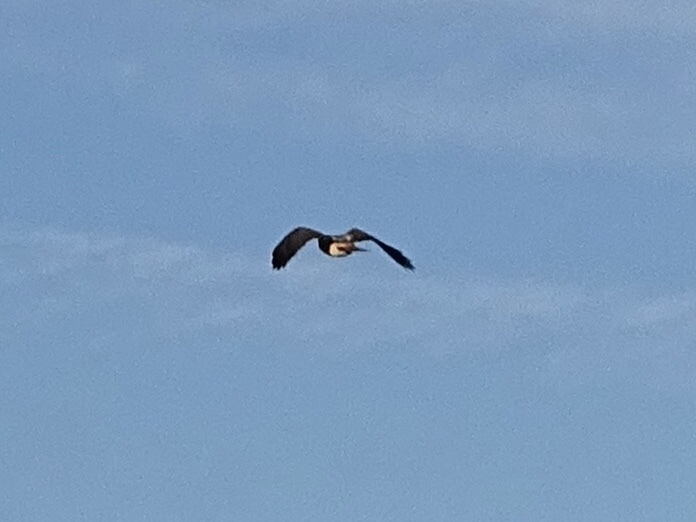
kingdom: Animalia
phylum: Chordata
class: Aves
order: Accipitriformes
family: Accipitridae
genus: Buteo
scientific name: Buteo jamaicensis
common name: Red-tailed hawk
